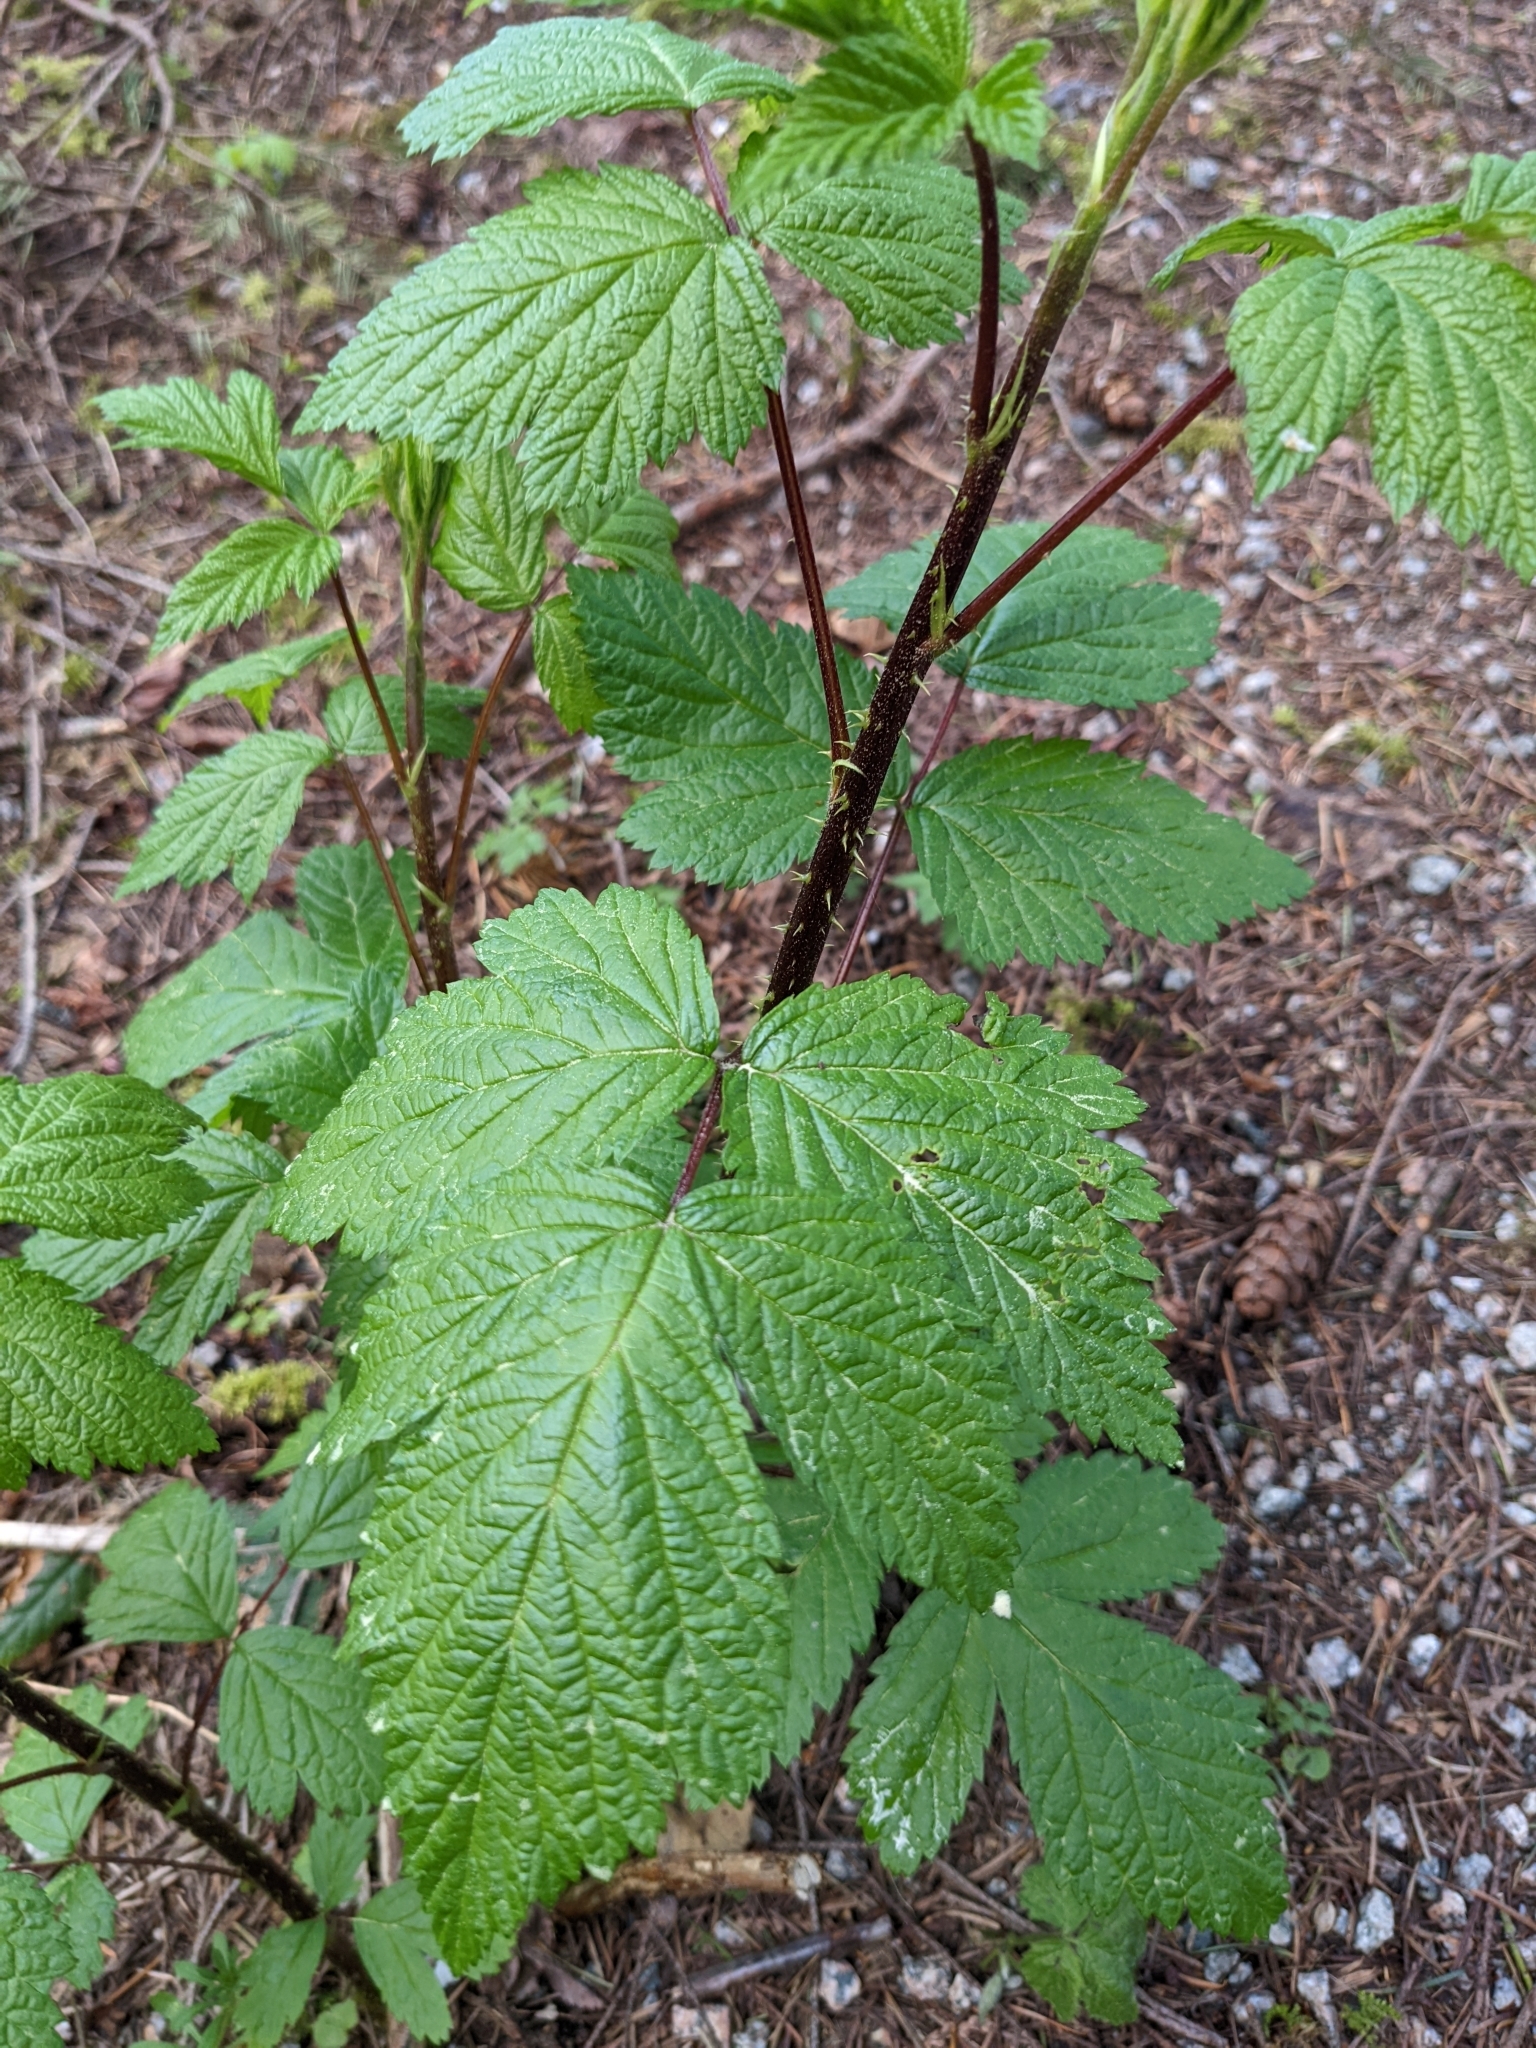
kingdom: Plantae
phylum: Tracheophyta
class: Magnoliopsida
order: Rosales
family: Rosaceae
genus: Rubus
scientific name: Rubus spectabilis
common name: Salmonberry
